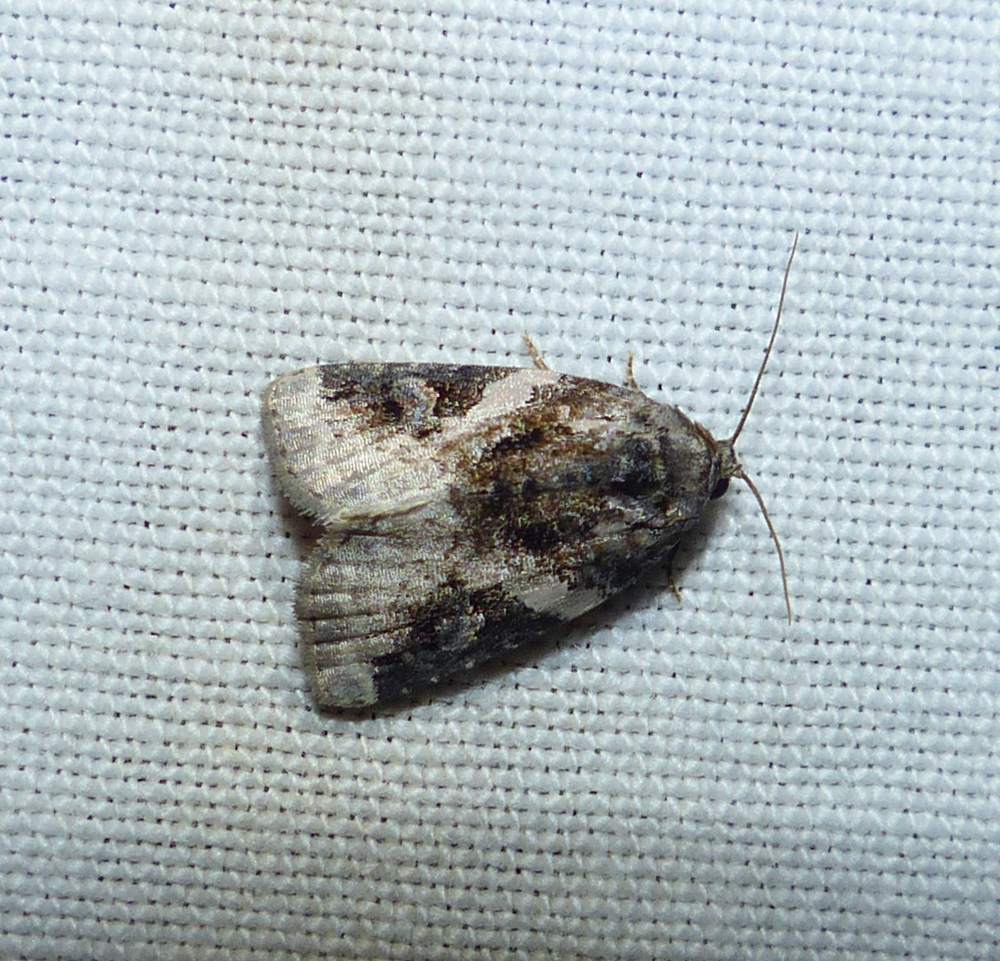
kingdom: Animalia
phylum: Arthropoda
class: Insecta
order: Lepidoptera
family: Noctuidae
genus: Pseudeustrotia
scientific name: Pseudeustrotia carneola
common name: Pink-barred lithacodia moth
